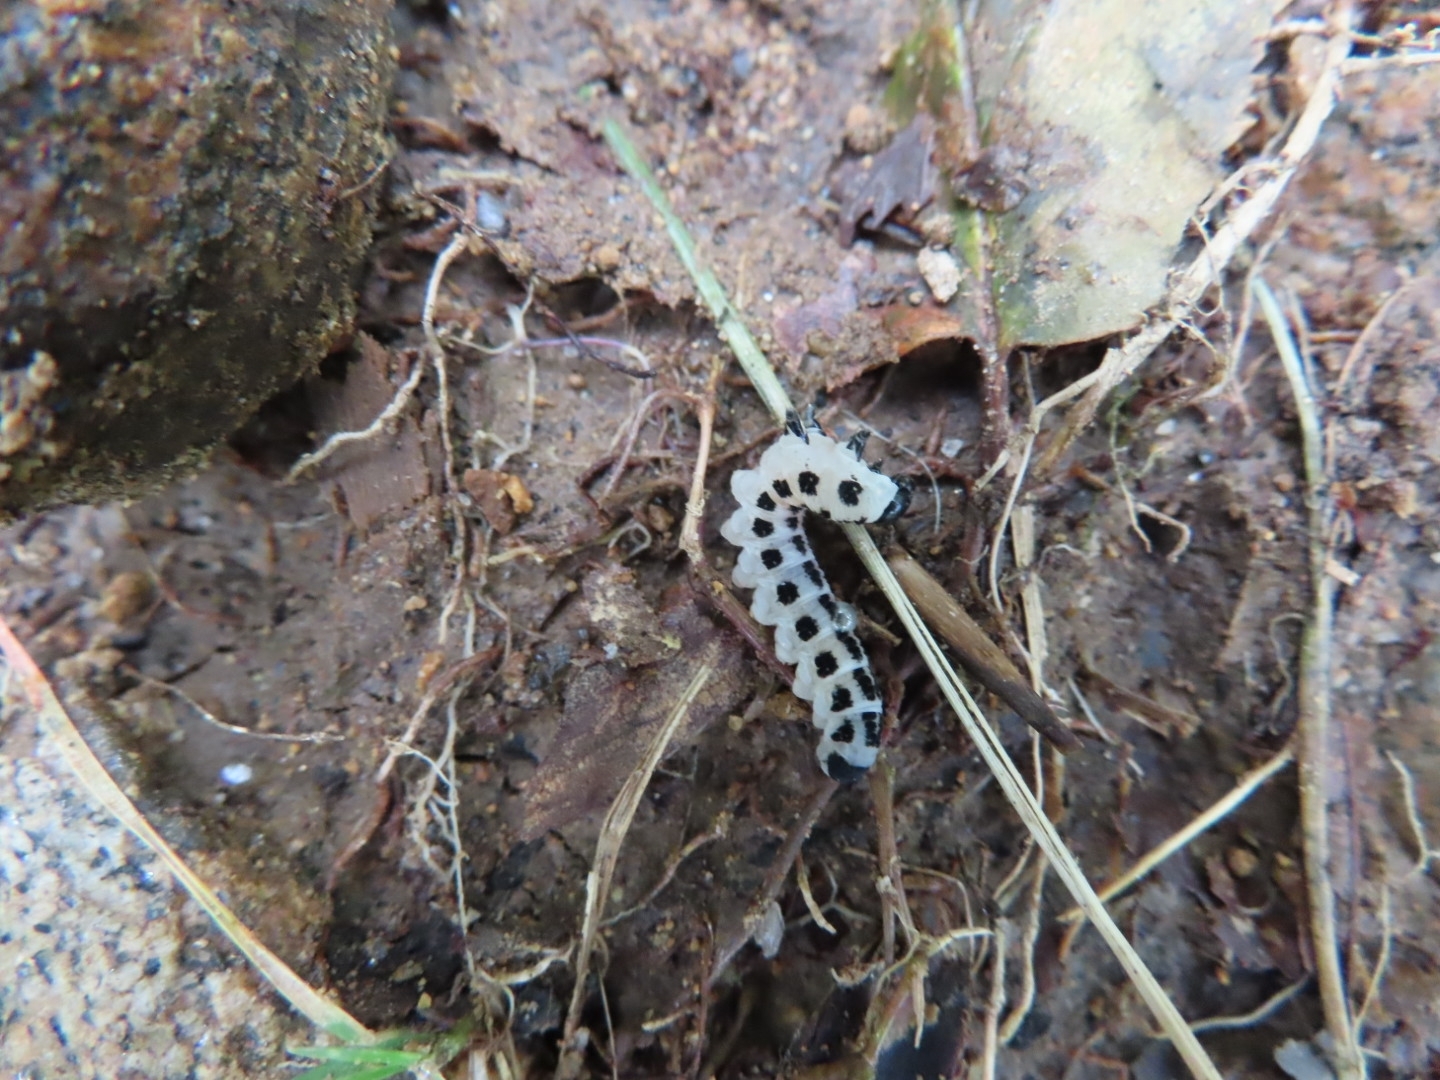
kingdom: Animalia
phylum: Arthropoda
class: Insecta
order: Hymenoptera
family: Diprionidae
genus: Neodiprion
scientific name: Neodiprion pinetum
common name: White pine sawfly
